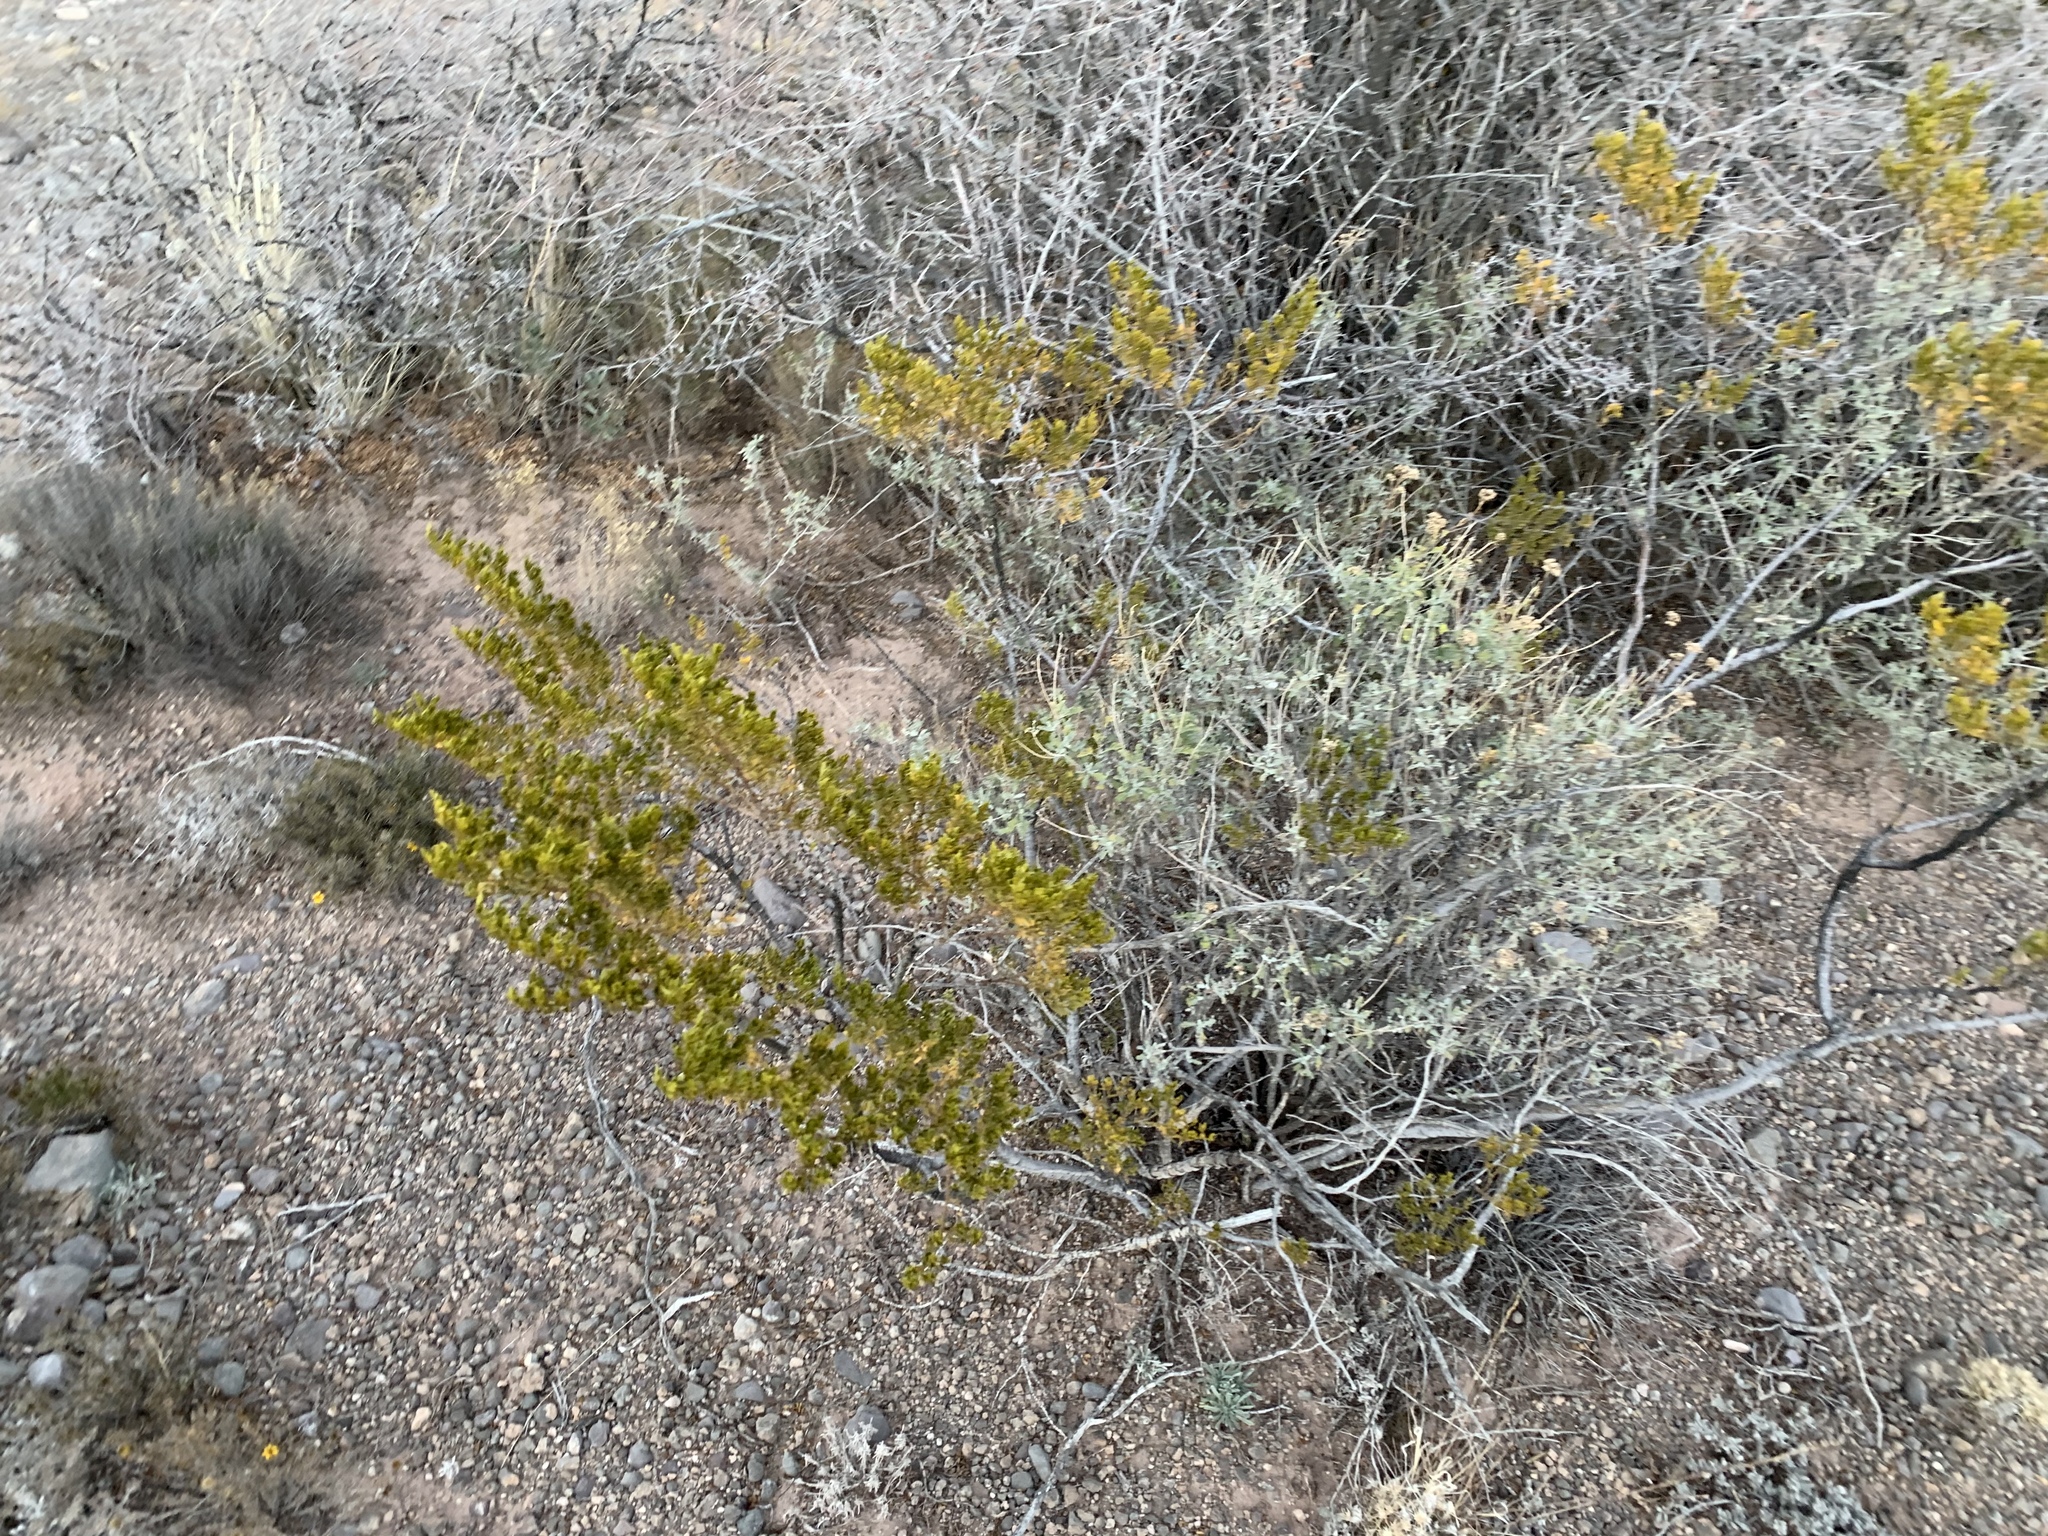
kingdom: Plantae
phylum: Tracheophyta
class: Magnoliopsida
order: Zygophyllales
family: Zygophyllaceae
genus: Larrea
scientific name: Larrea tridentata
